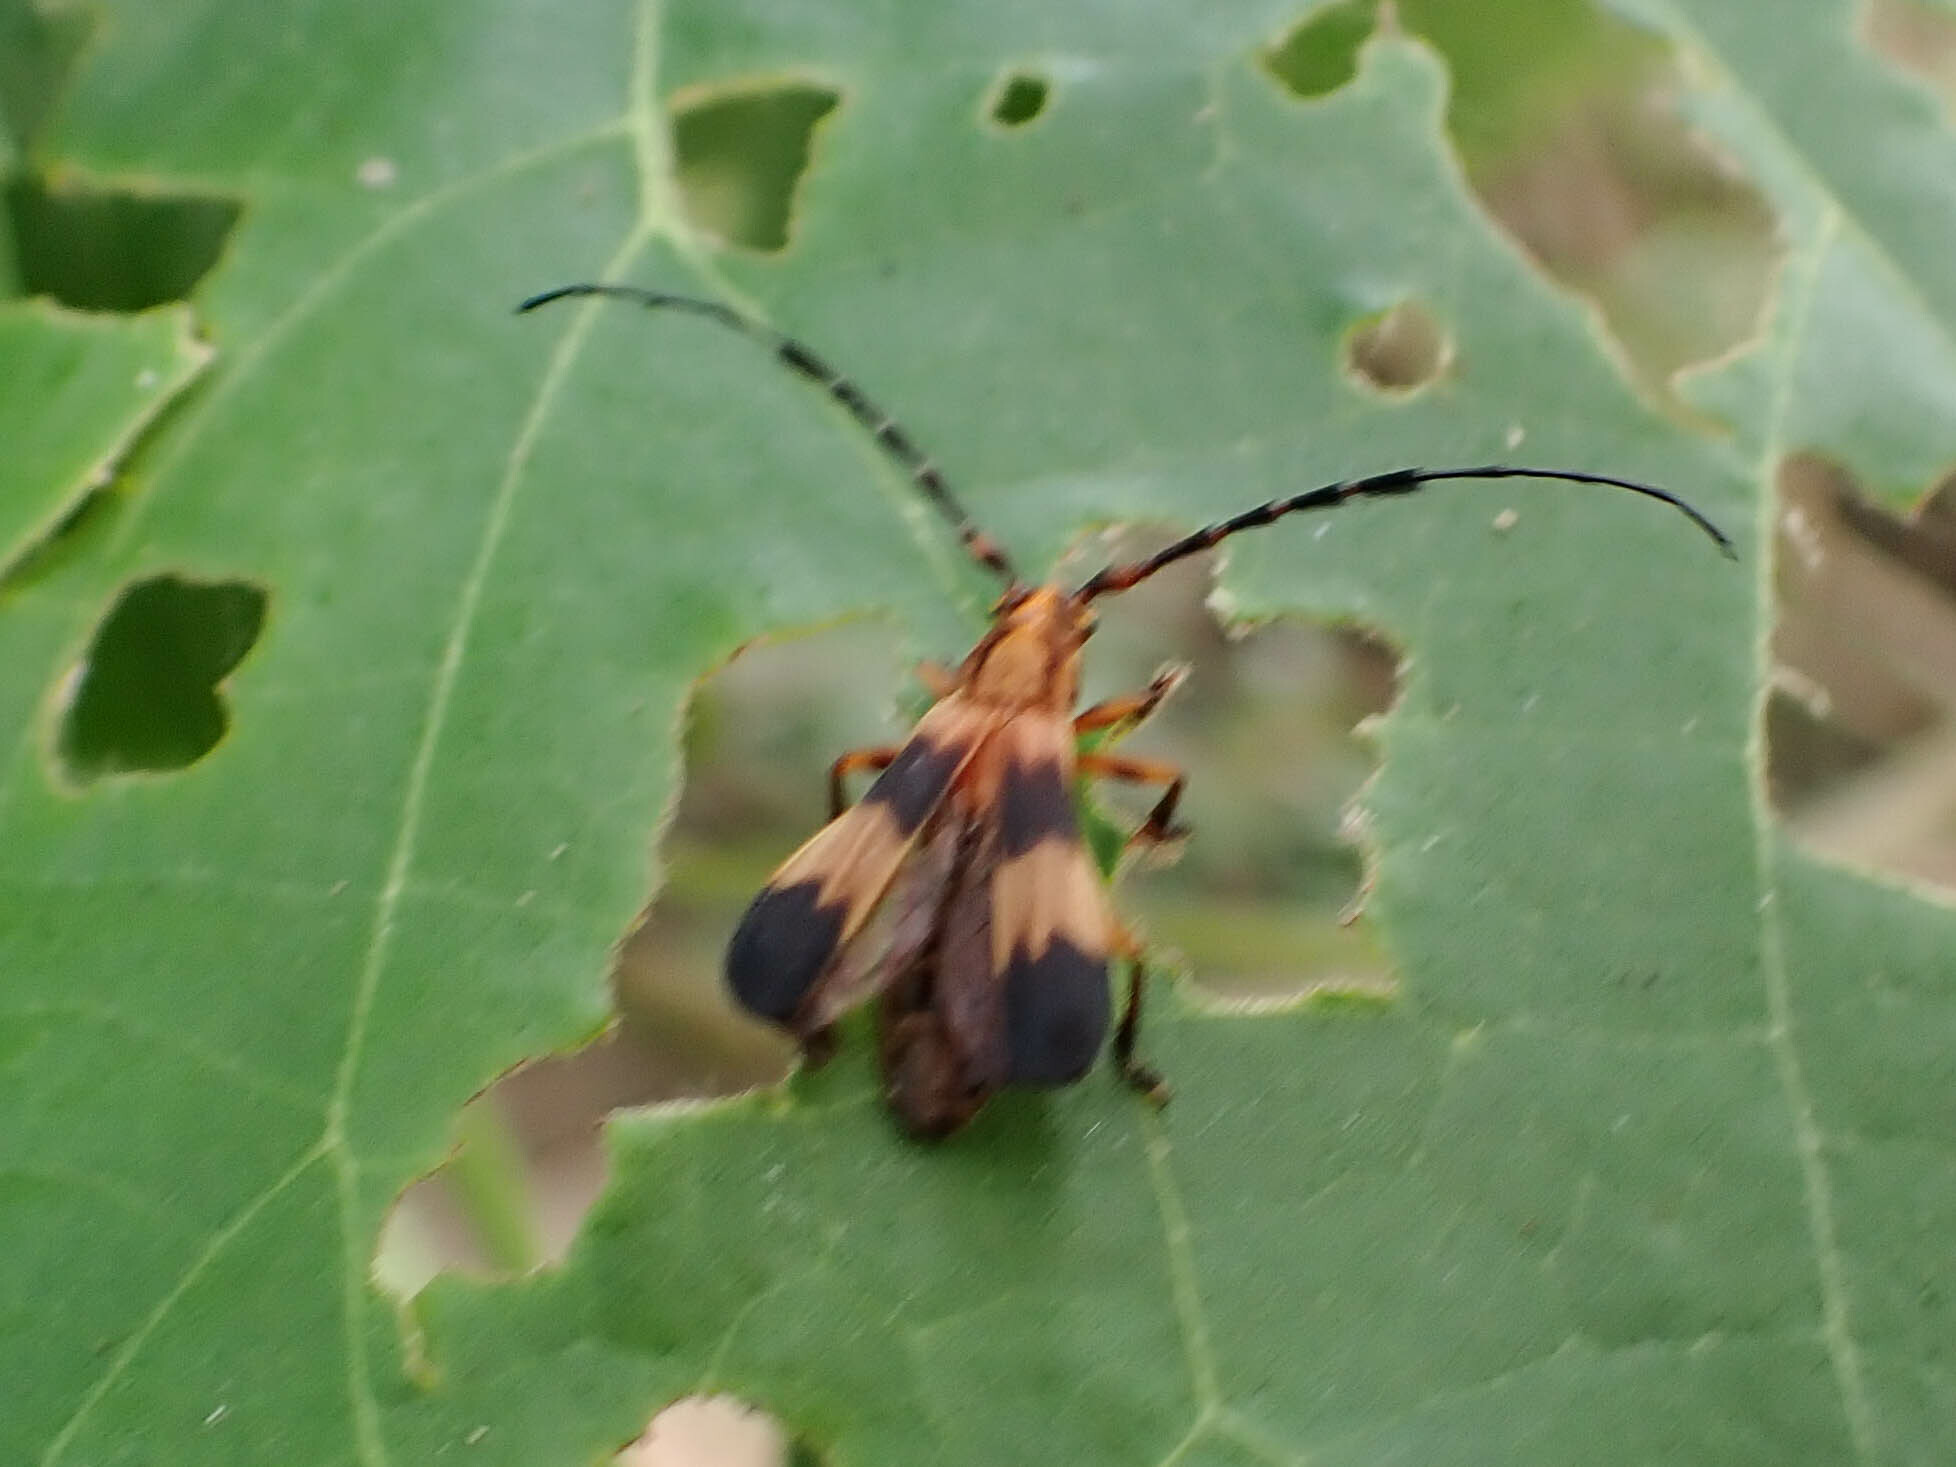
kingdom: Animalia
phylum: Arthropoda
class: Insecta
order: Coleoptera
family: Cerambycidae
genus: Pteroplatus
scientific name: Pteroplatus bilineatus
